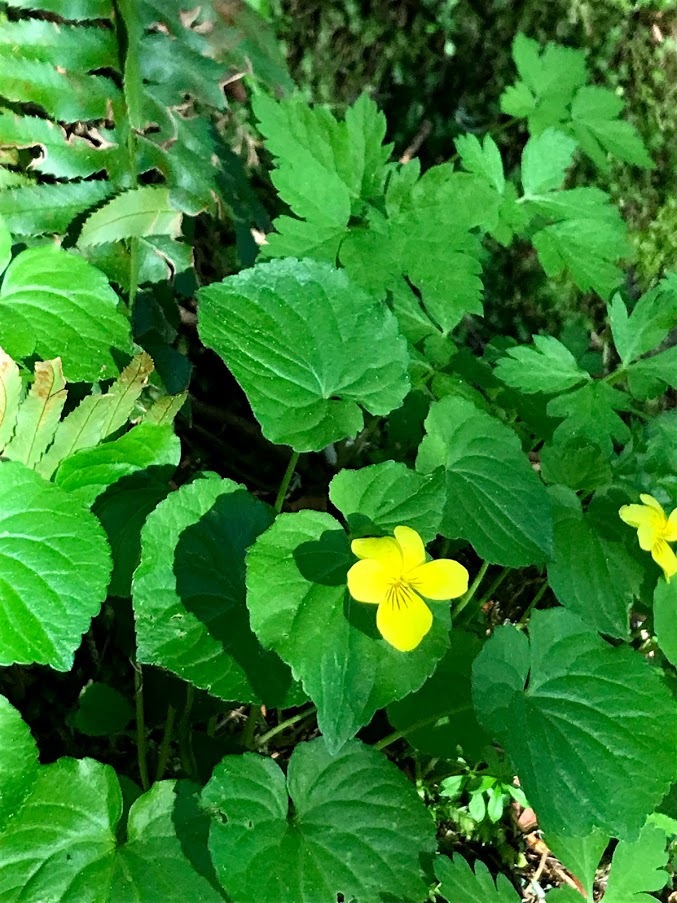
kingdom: Plantae
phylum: Tracheophyta
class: Magnoliopsida
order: Malpighiales
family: Violaceae
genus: Viola
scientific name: Viola glabella
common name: Stream violet
